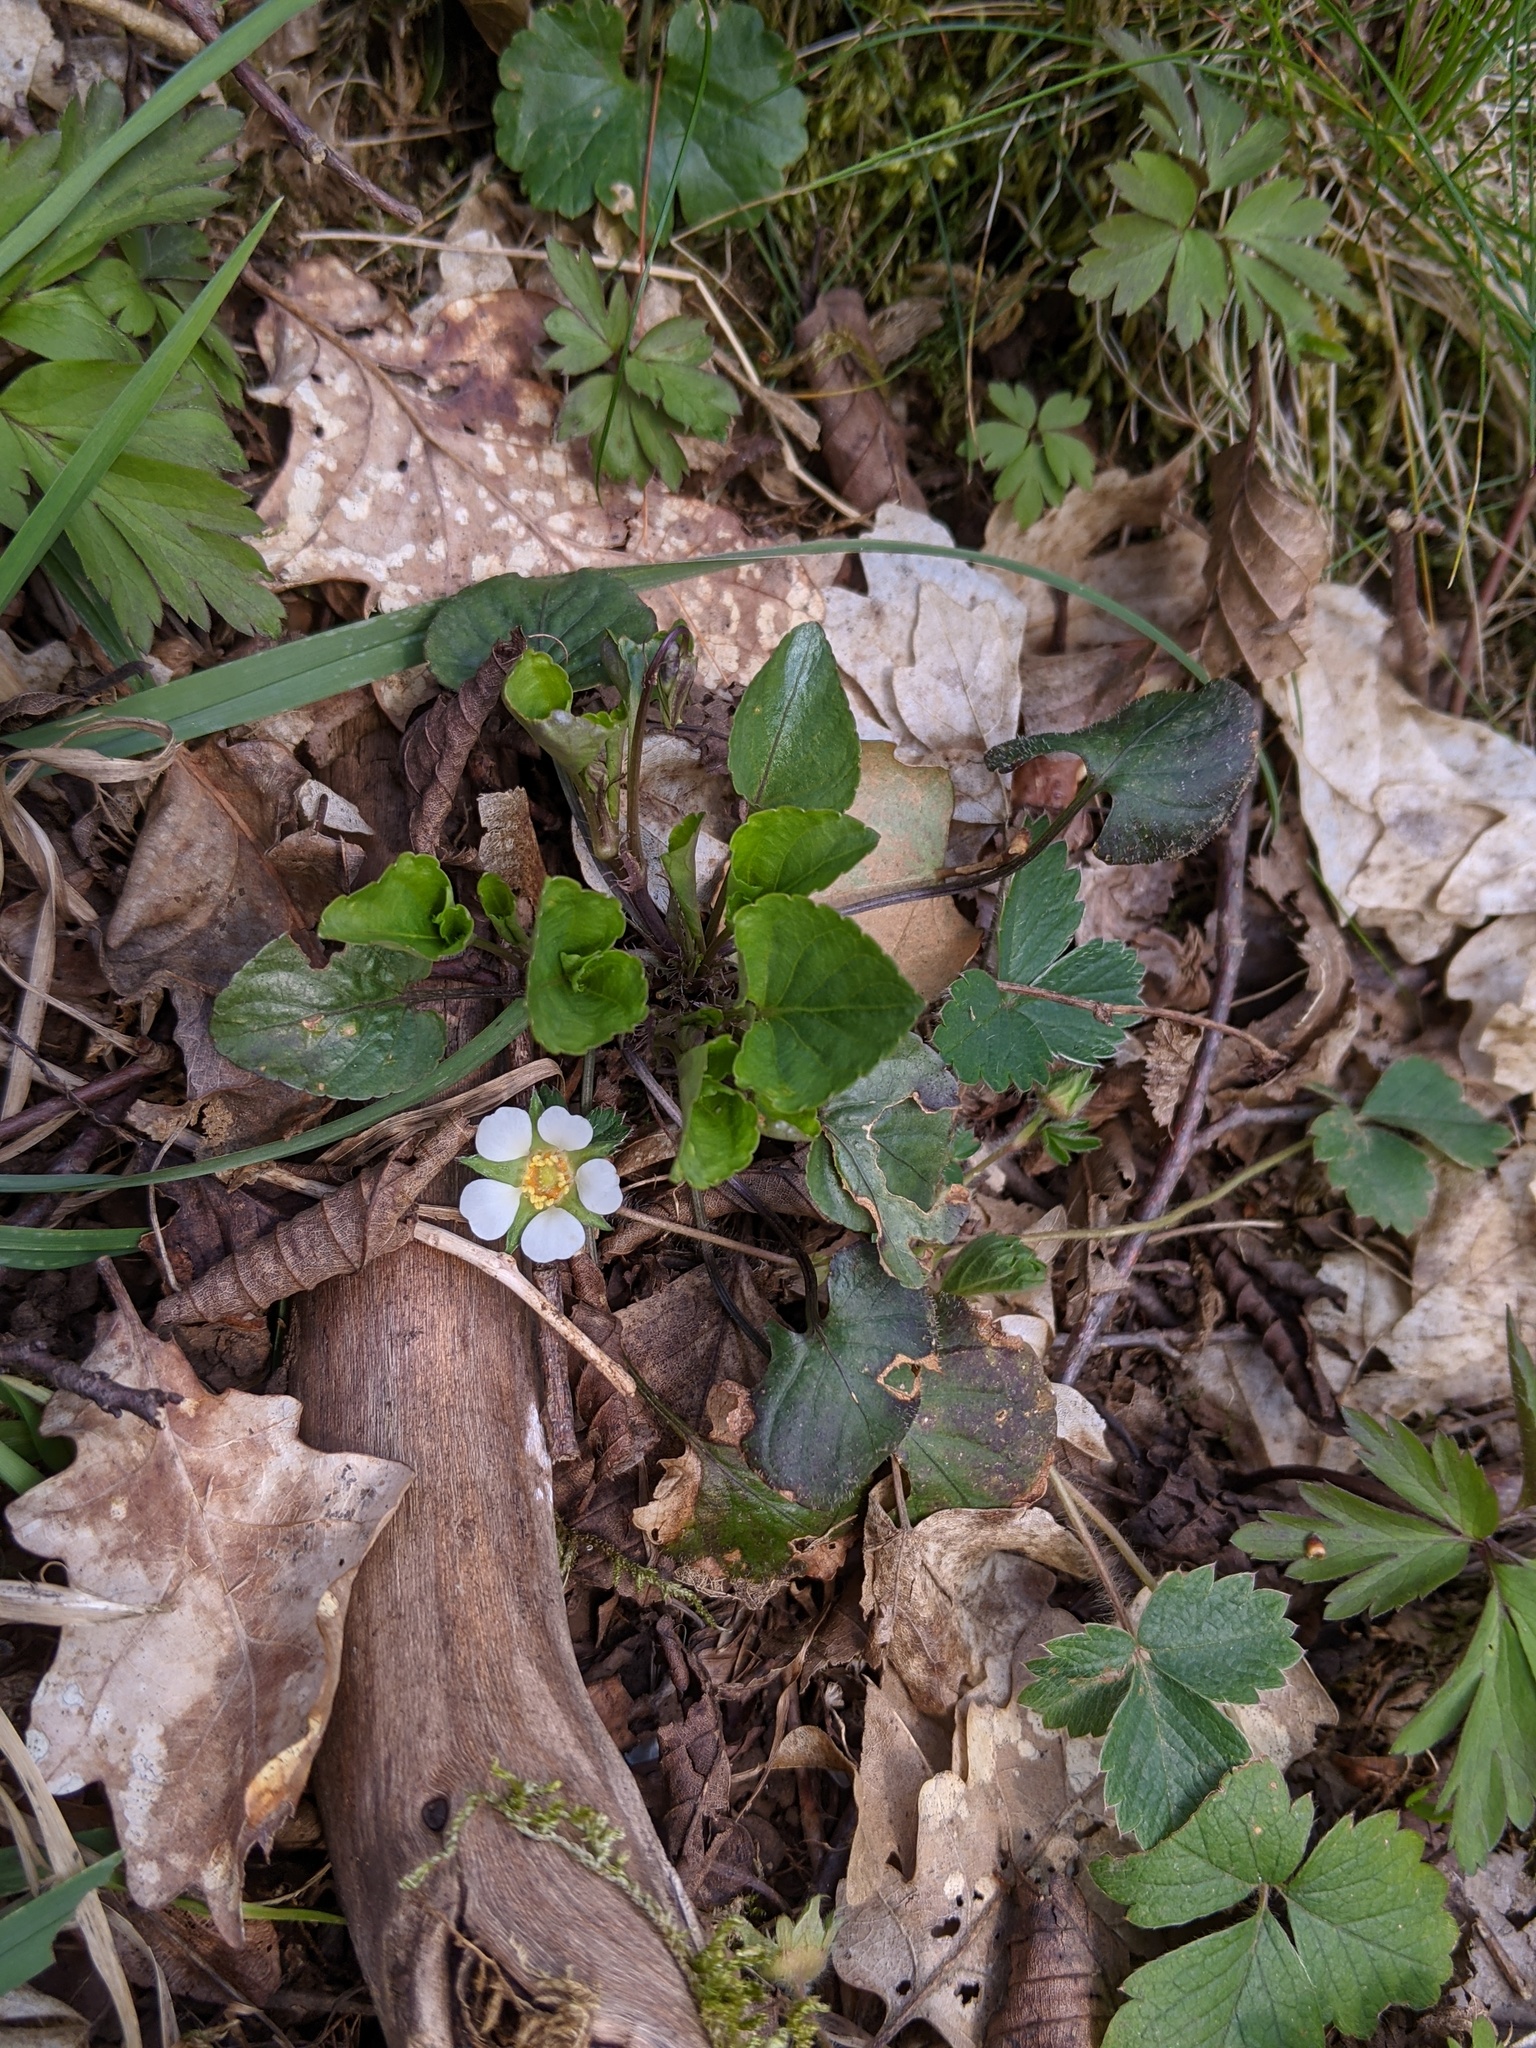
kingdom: Plantae
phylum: Tracheophyta
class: Magnoliopsida
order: Rosales
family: Rosaceae
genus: Potentilla
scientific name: Potentilla sterilis
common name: Barren strawberry
